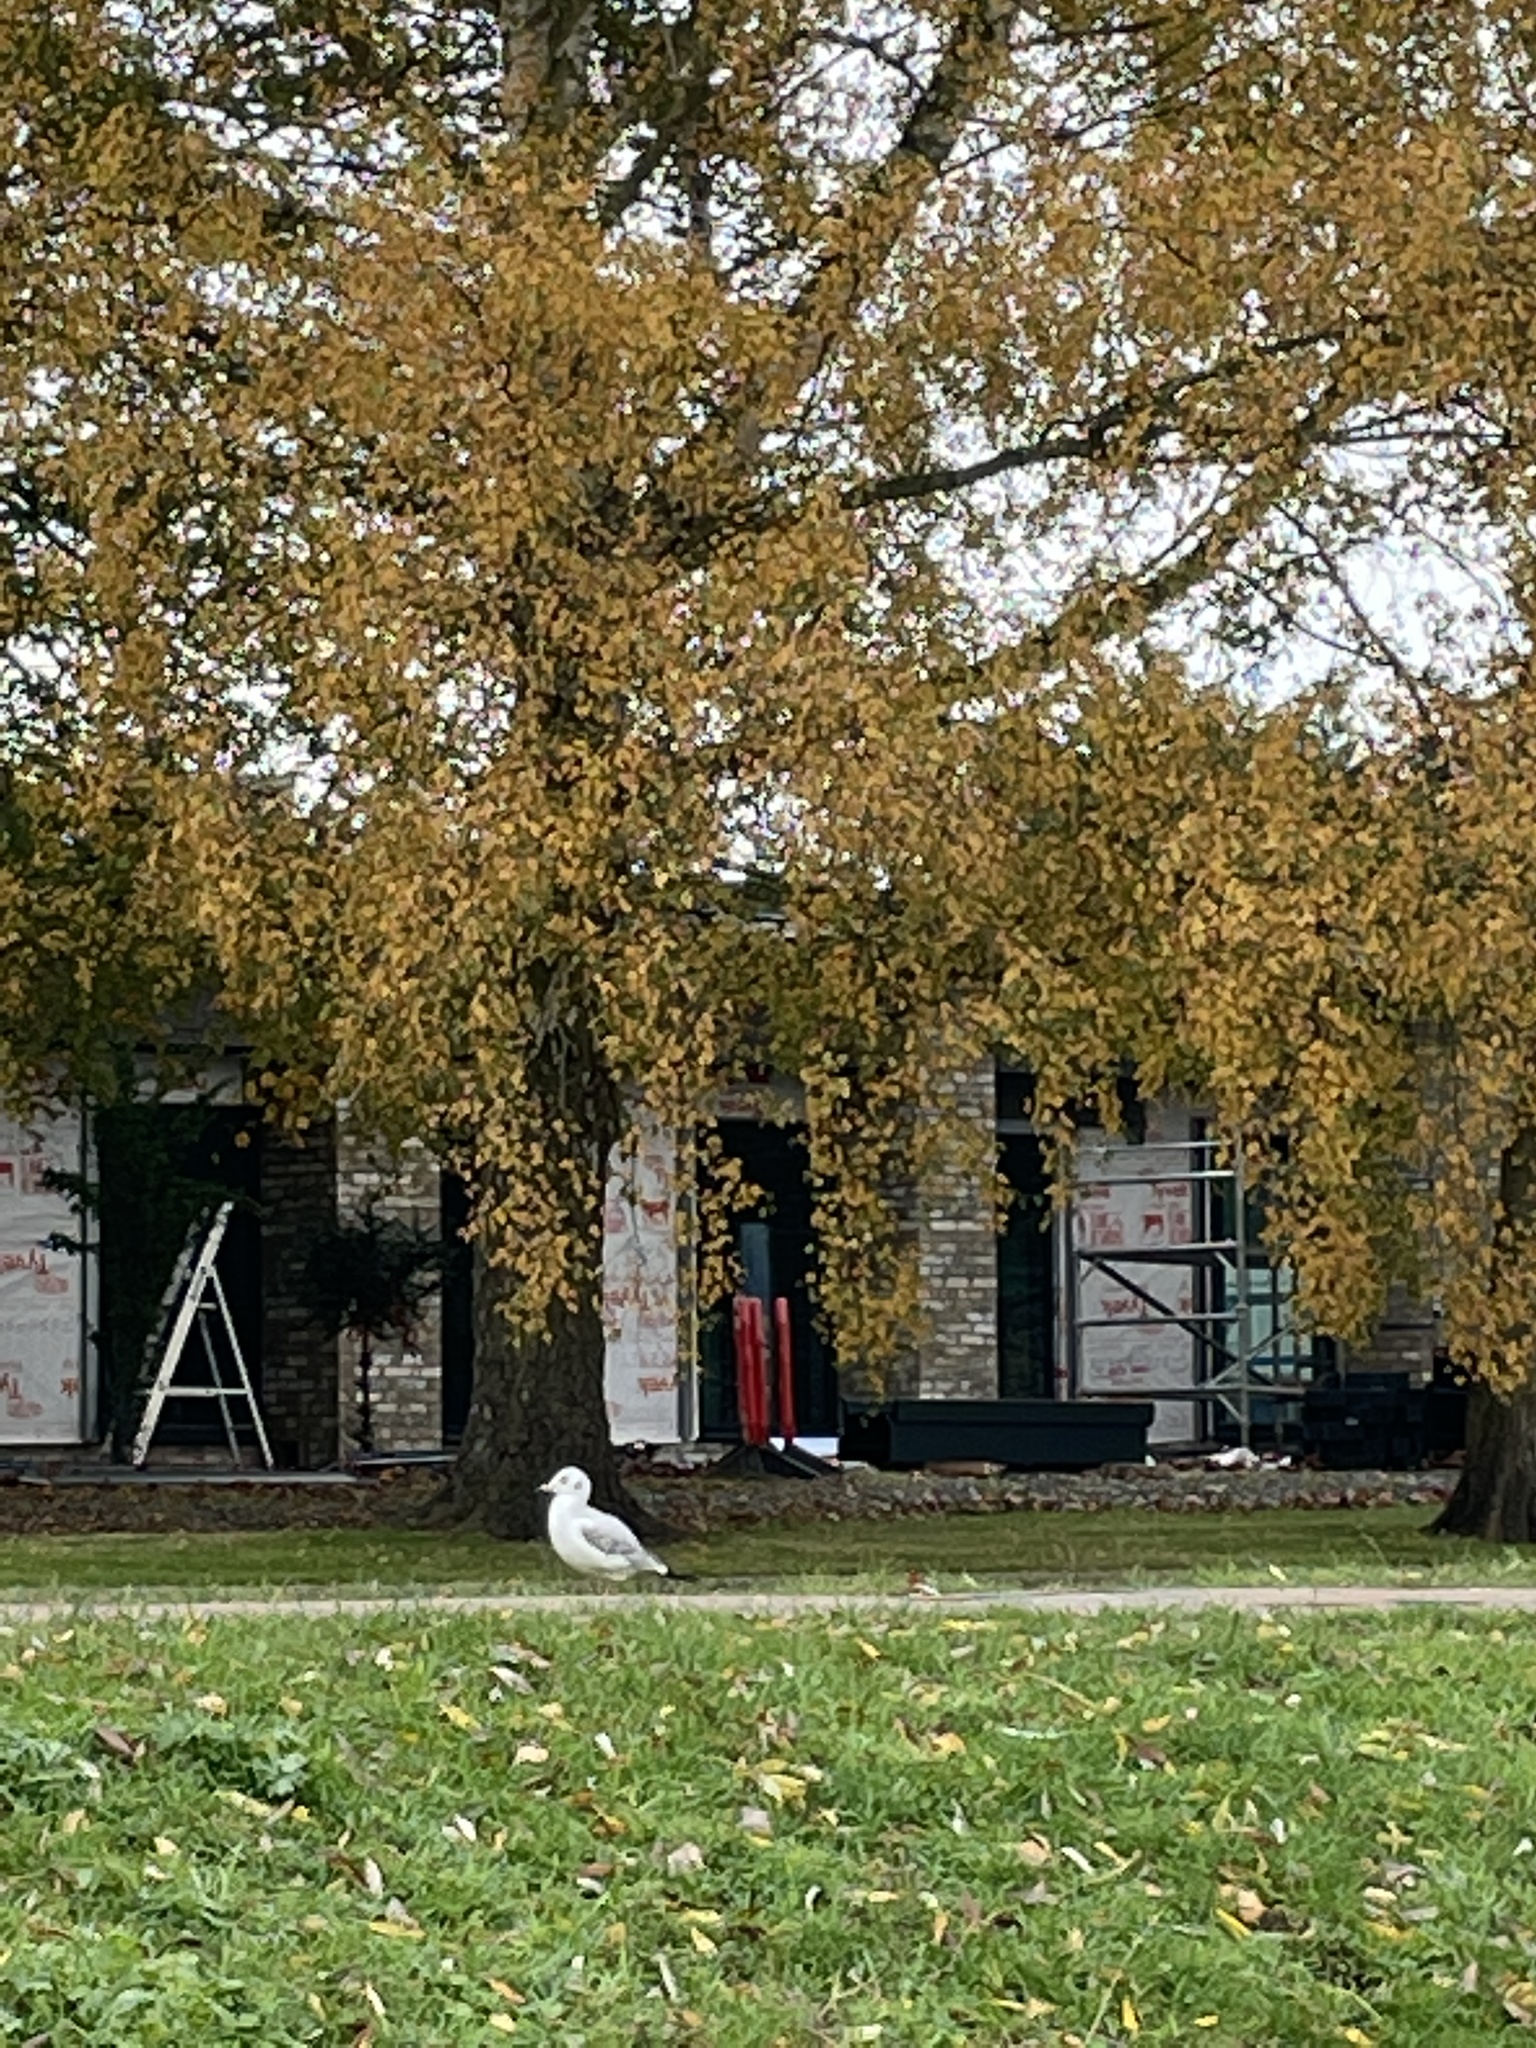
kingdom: Animalia
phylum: Chordata
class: Aves
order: Charadriiformes
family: Laridae
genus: Chroicocephalus
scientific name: Chroicocephalus ridibundus
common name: Black-headed gull
